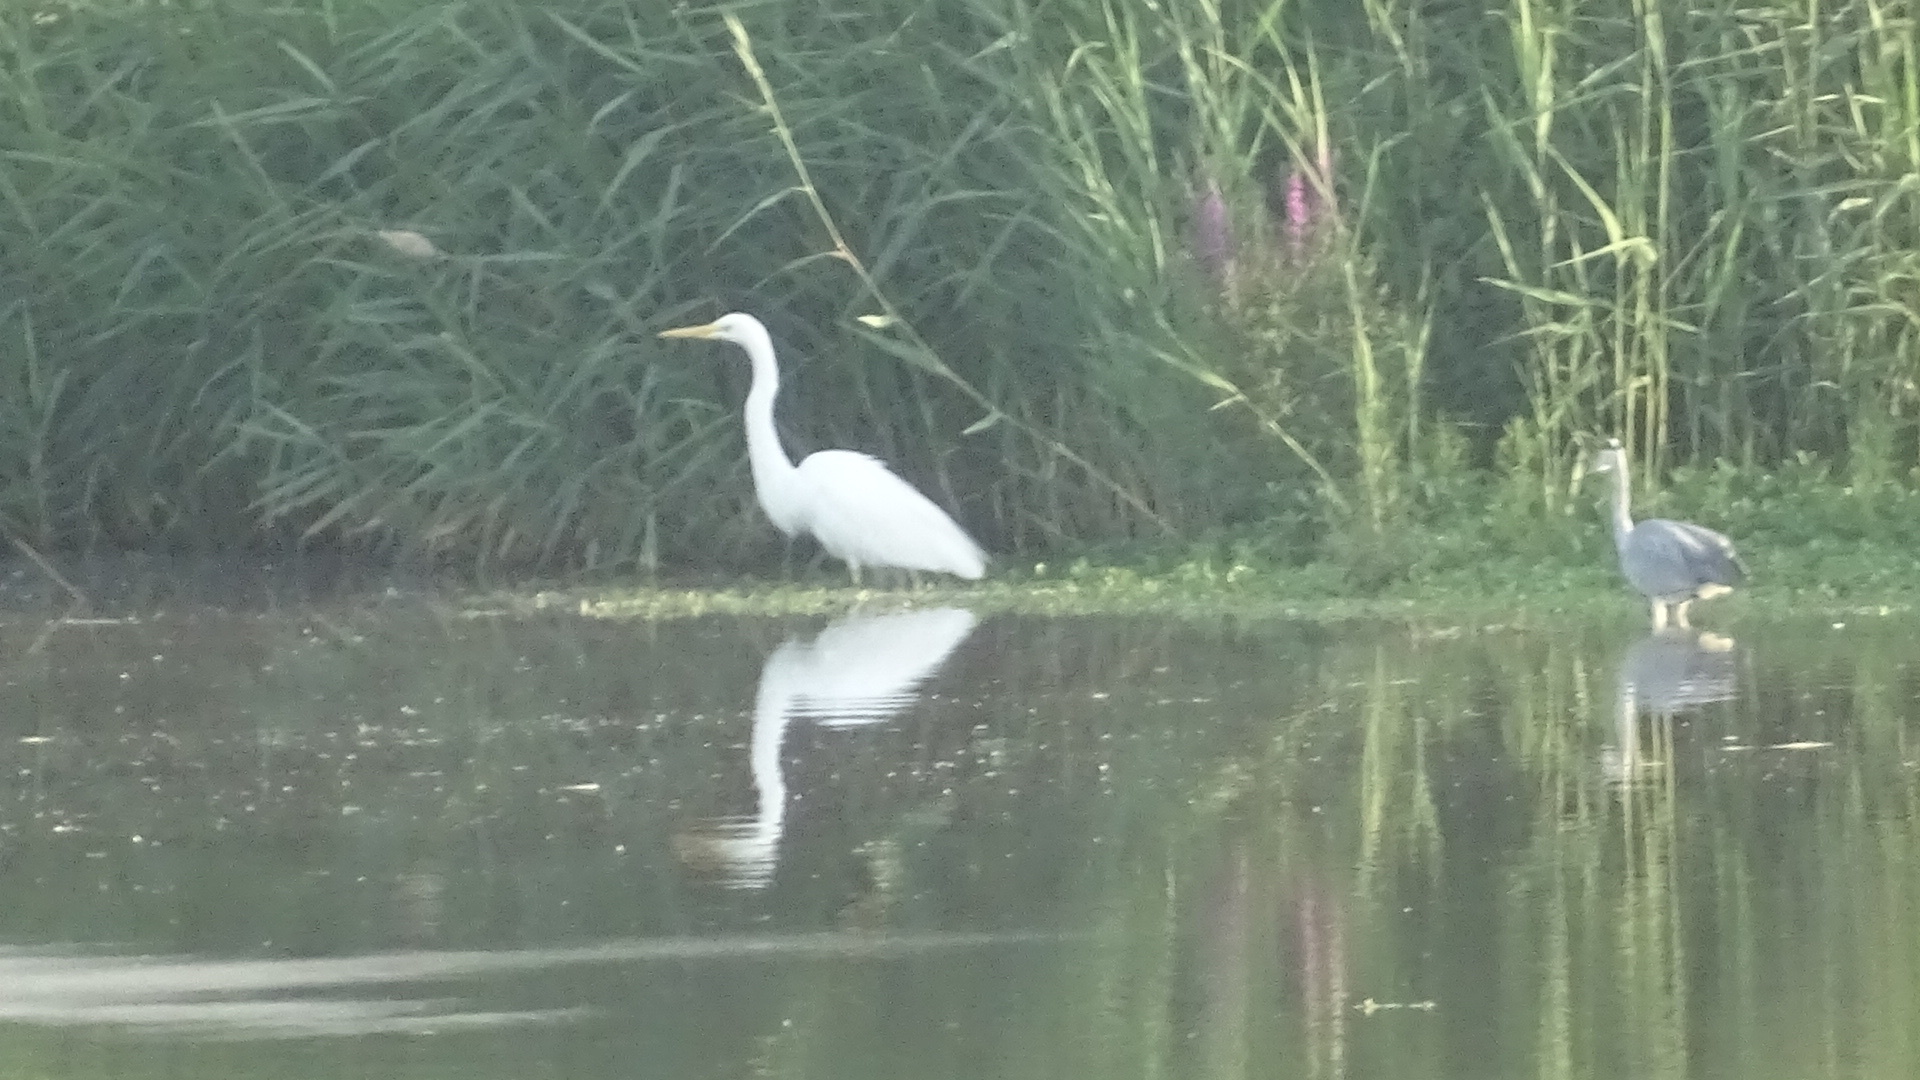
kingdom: Animalia
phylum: Chordata
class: Aves
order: Pelecaniformes
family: Ardeidae
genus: Ardea
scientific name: Ardea alba
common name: Great egret
